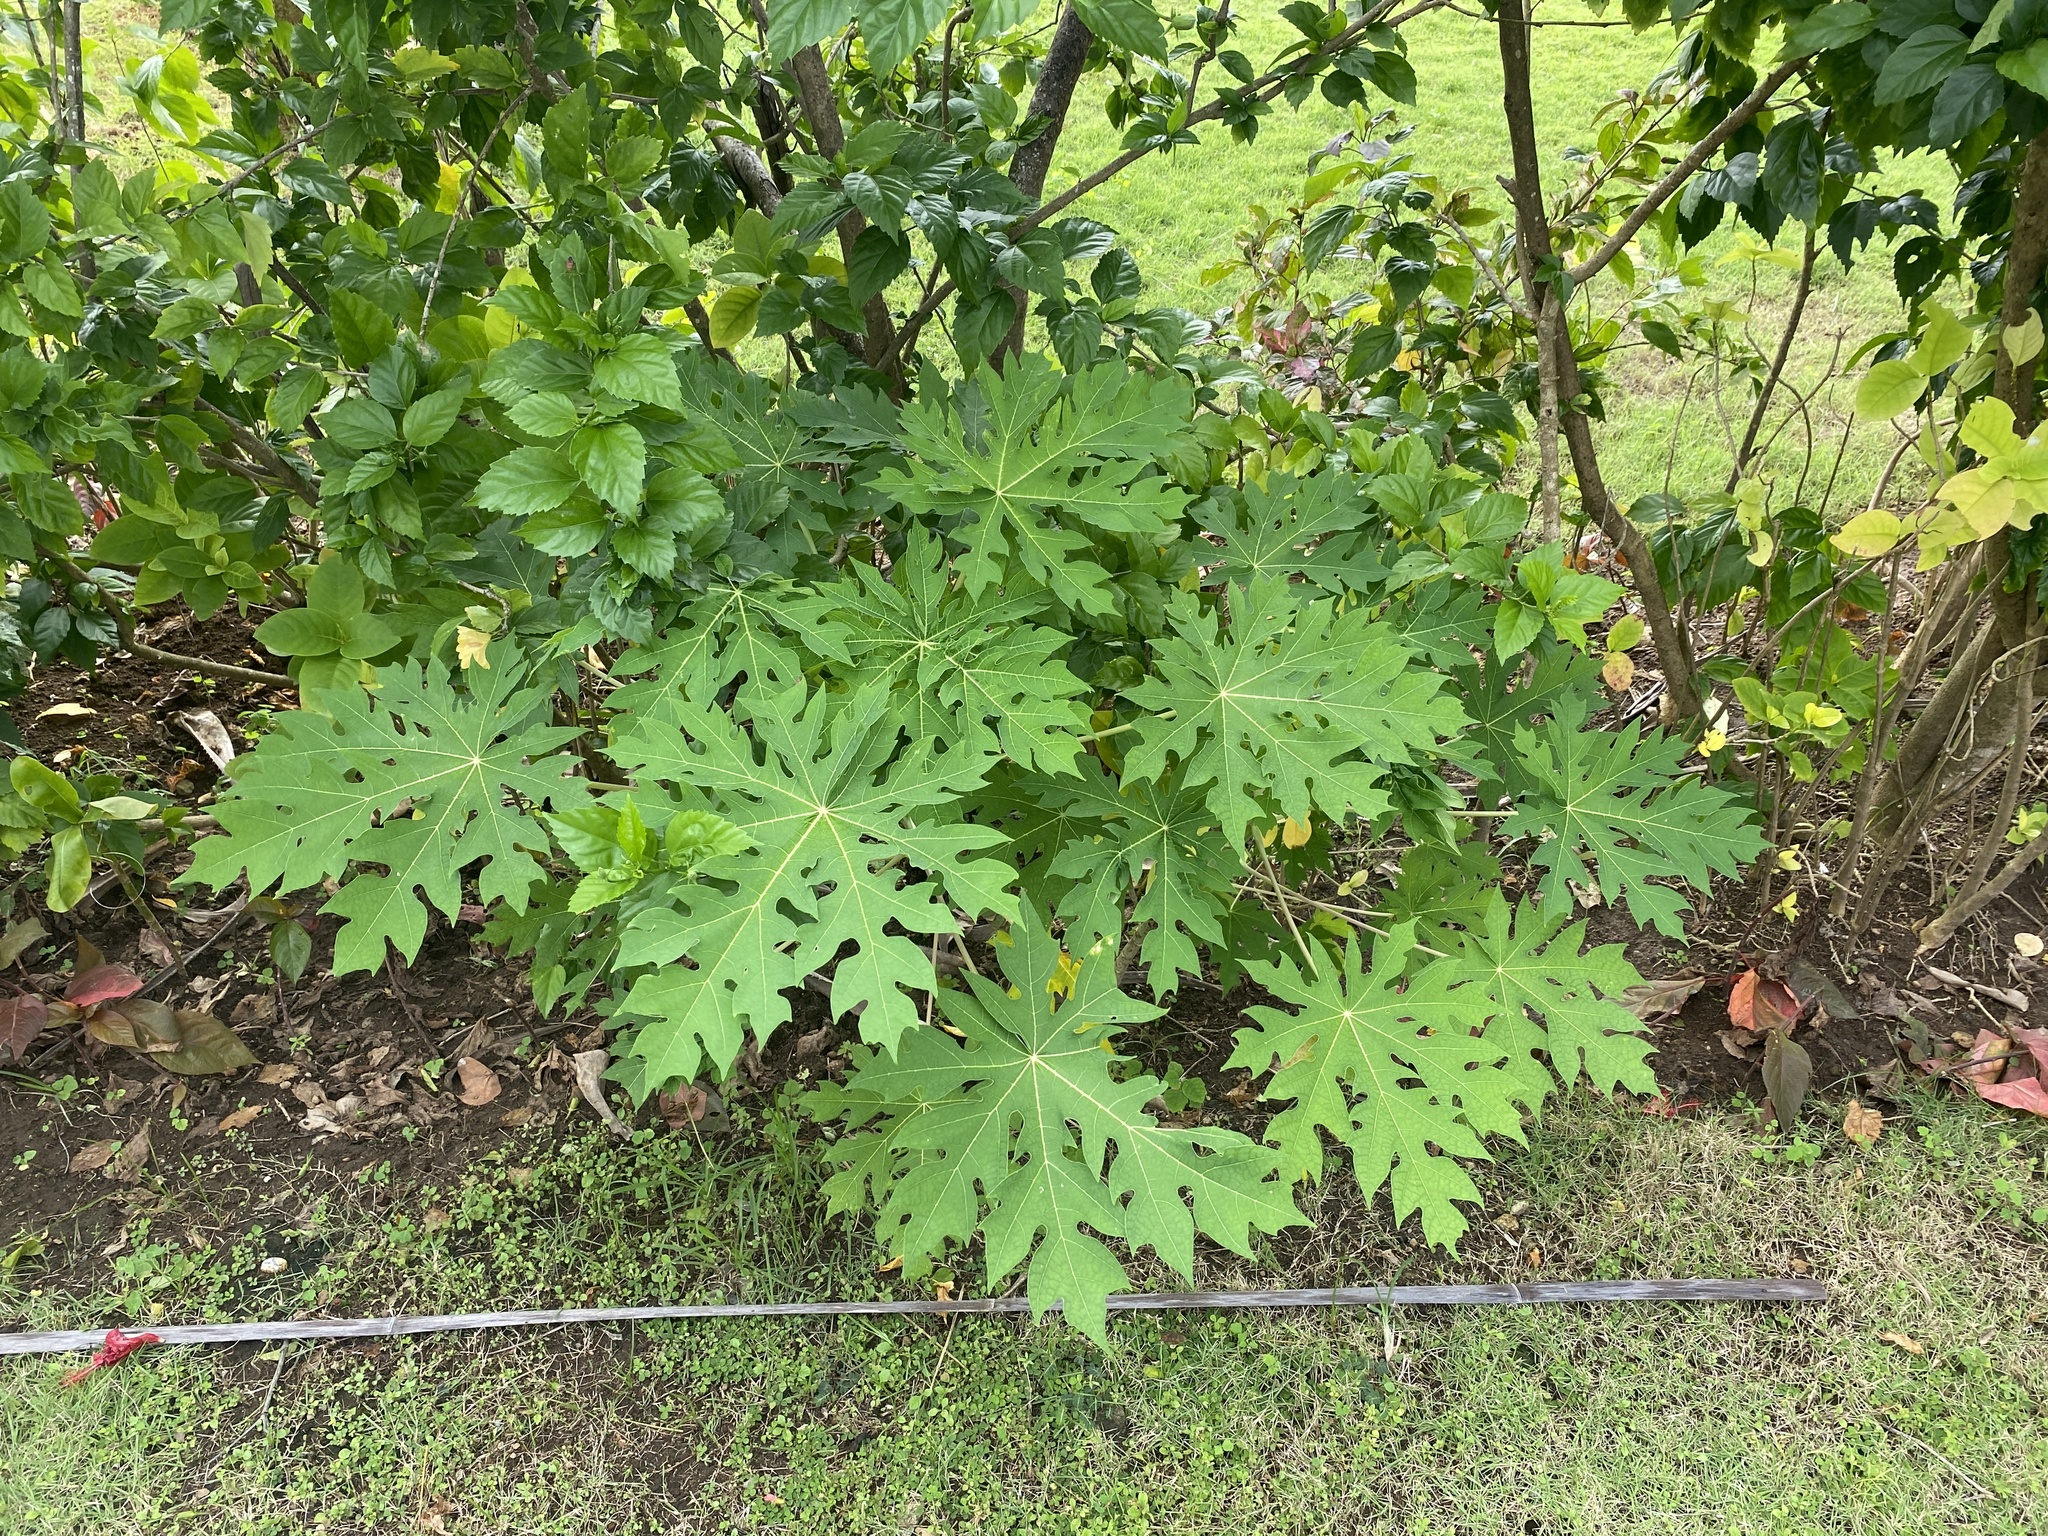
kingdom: Plantae
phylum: Tracheophyta
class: Magnoliopsida
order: Brassicales
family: Caricaceae
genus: Carica
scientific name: Carica papaya
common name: Papaya
